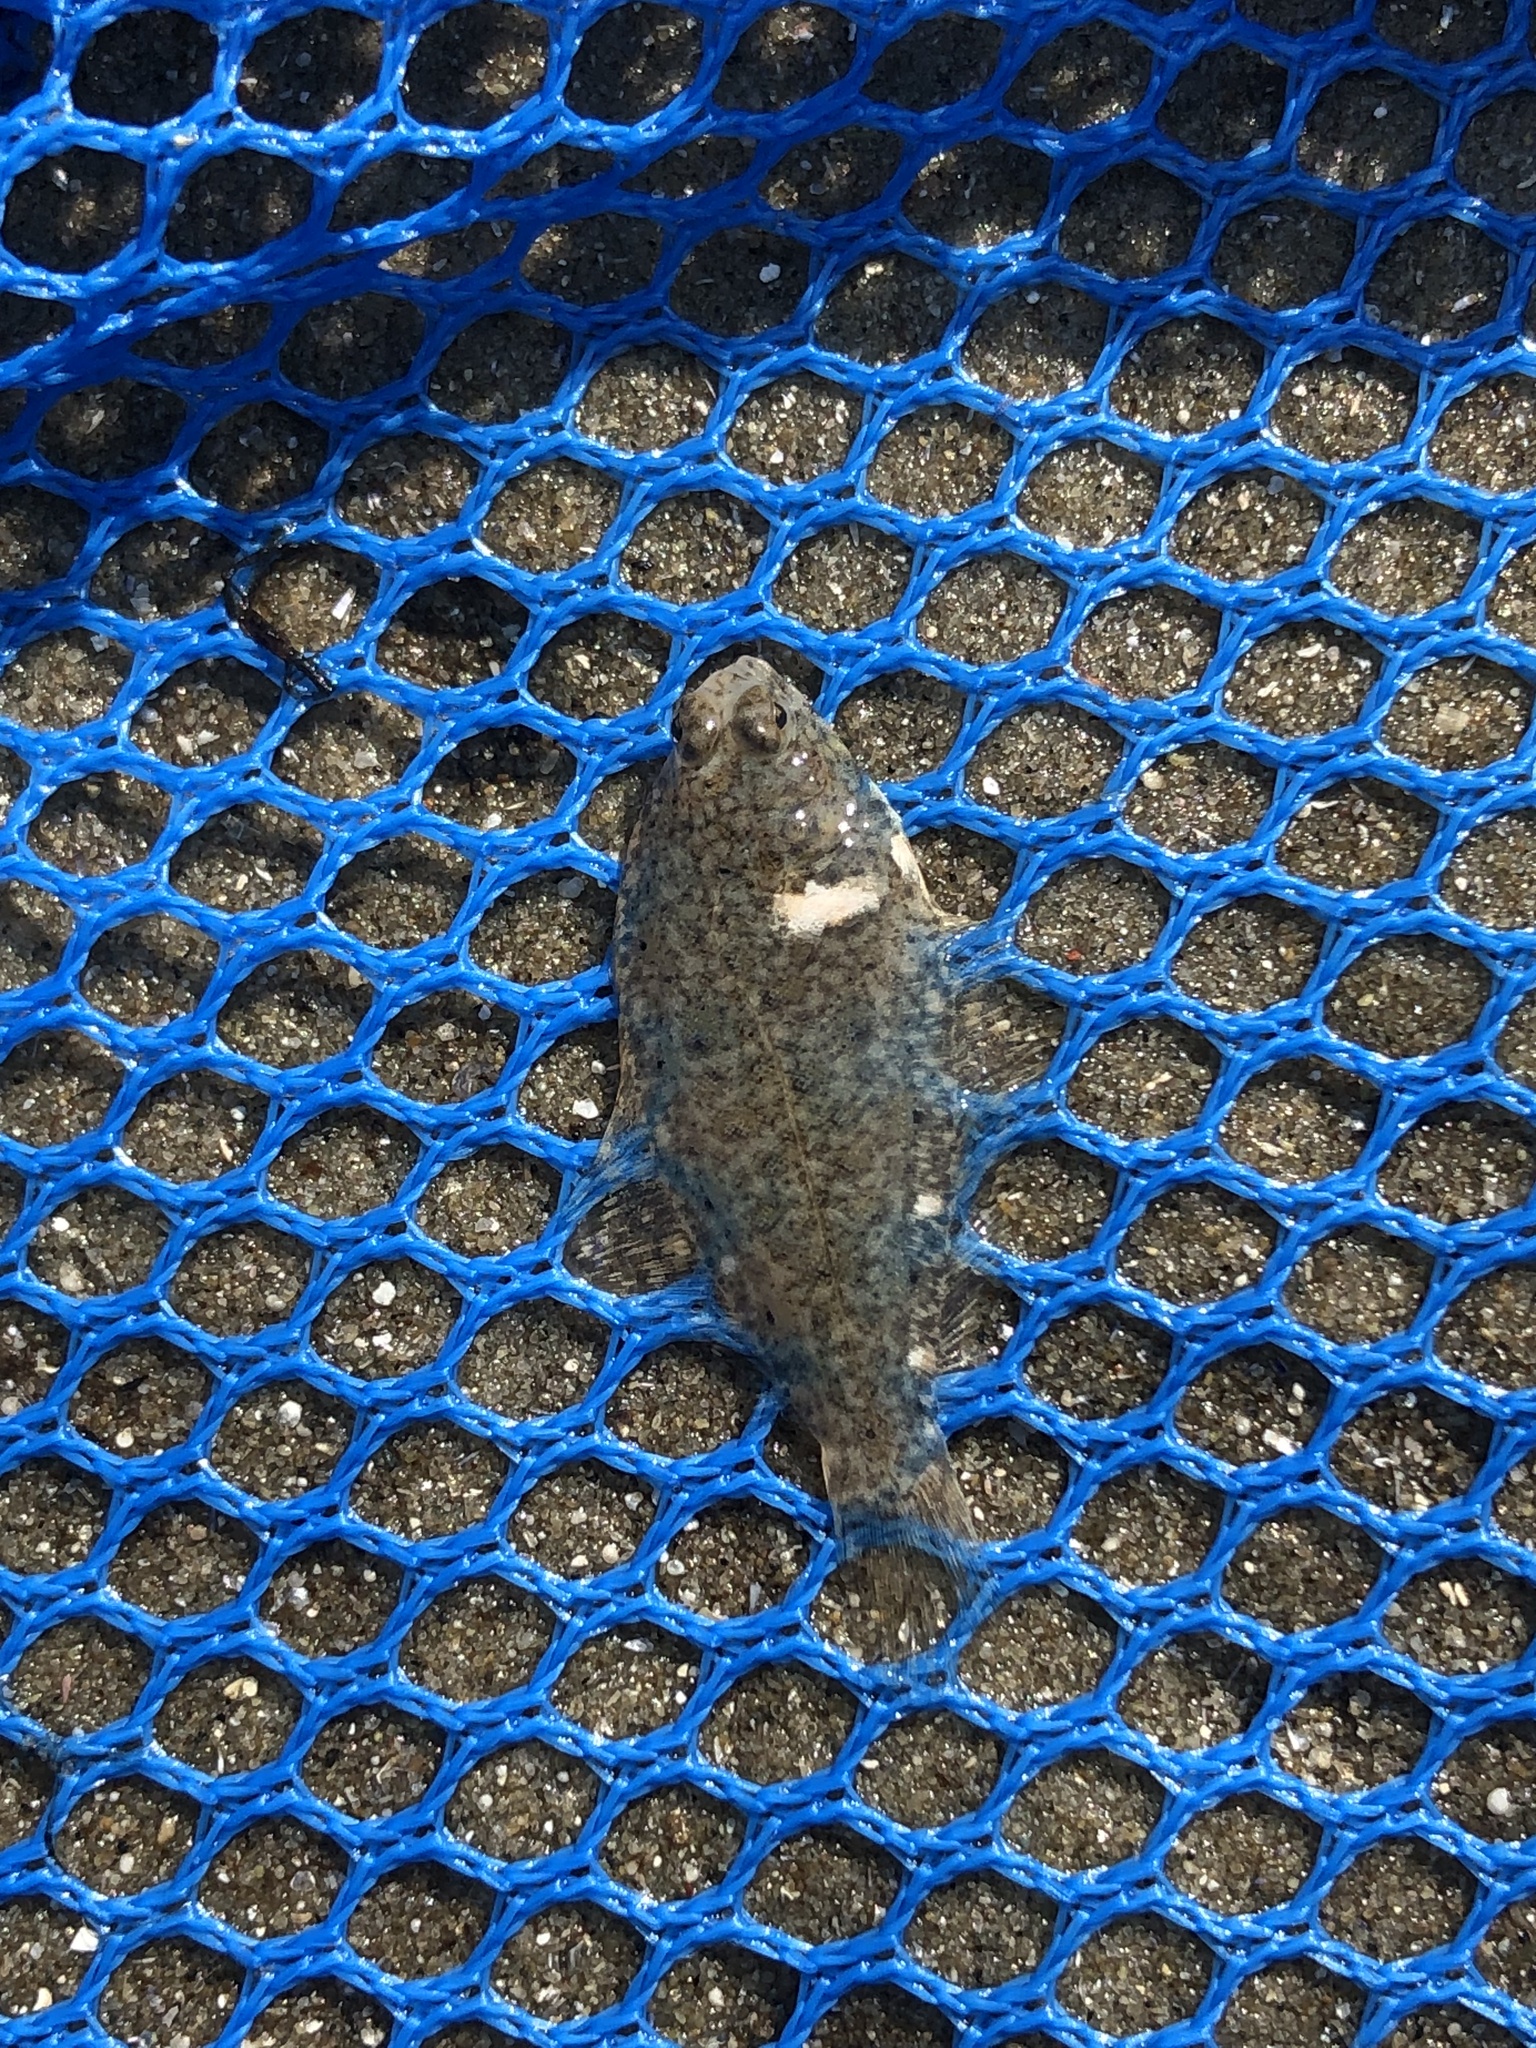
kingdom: Animalia
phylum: Chordata
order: Pleuronectiformes
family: Pleuronectidae
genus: Pseudopleuronectes
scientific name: Pseudopleuronectes americanus
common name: Black backs
